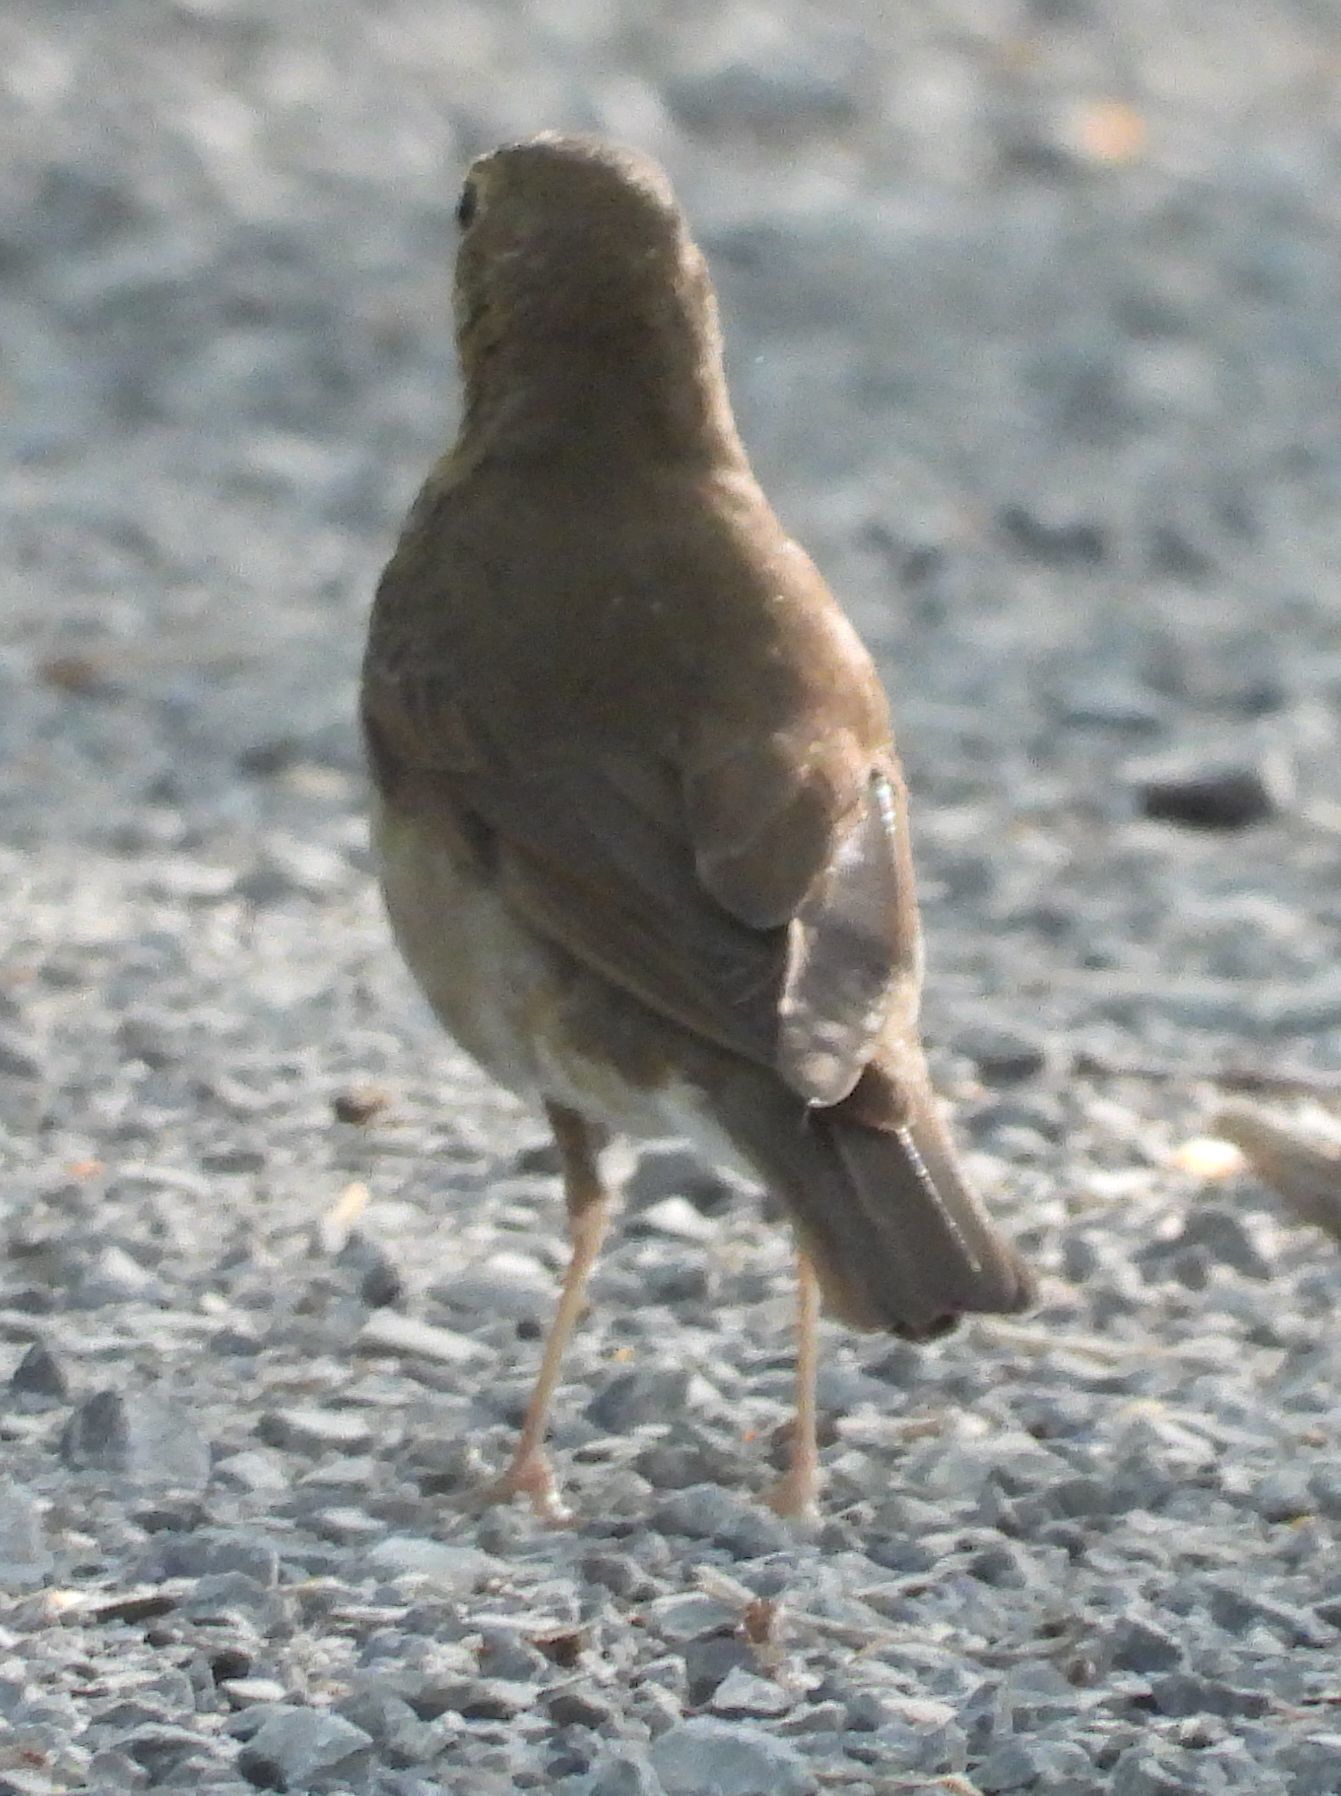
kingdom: Animalia
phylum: Chordata
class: Aves
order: Passeriformes
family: Turdidae
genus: Catharus
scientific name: Catharus ustulatus
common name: Swainson's thrush
